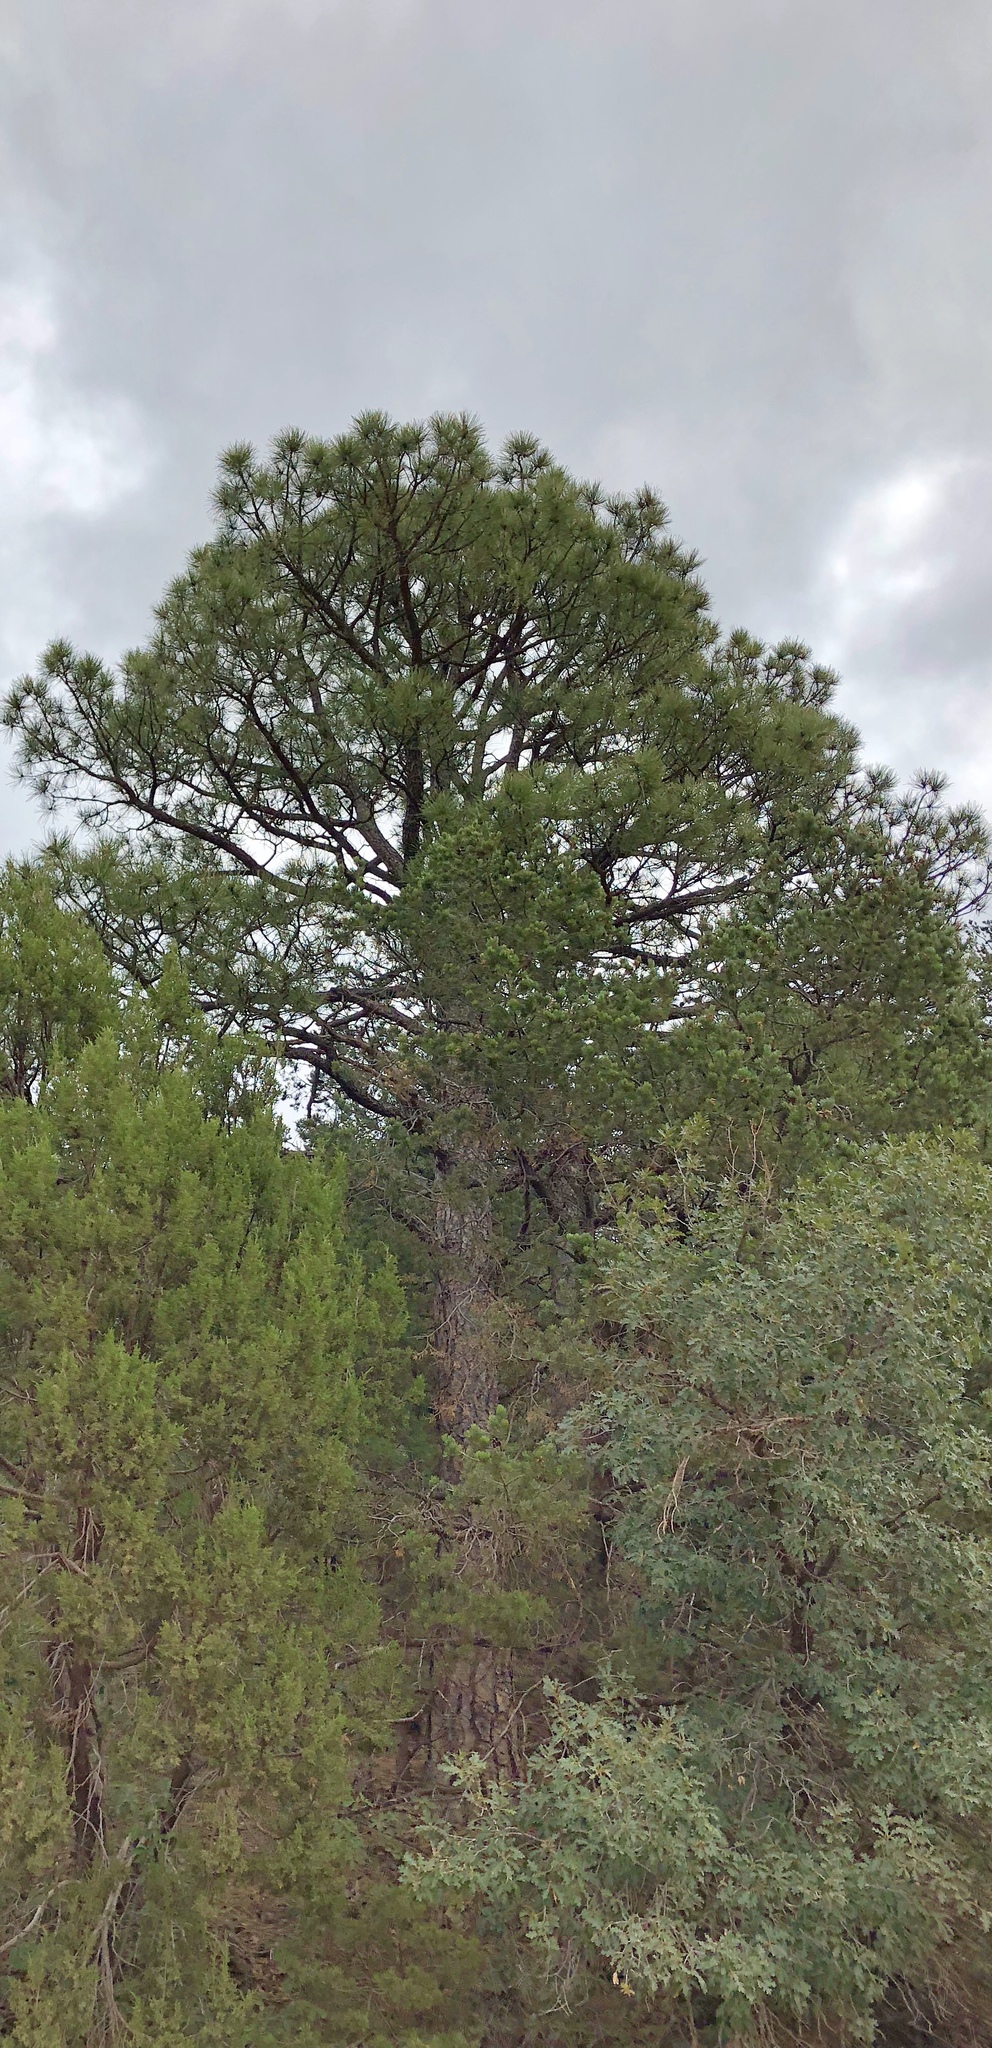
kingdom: Plantae
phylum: Tracheophyta
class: Pinopsida
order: Pinales
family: Pinaceae
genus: Pinus
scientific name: Pinus ponderosa
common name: Western yellow-pine
